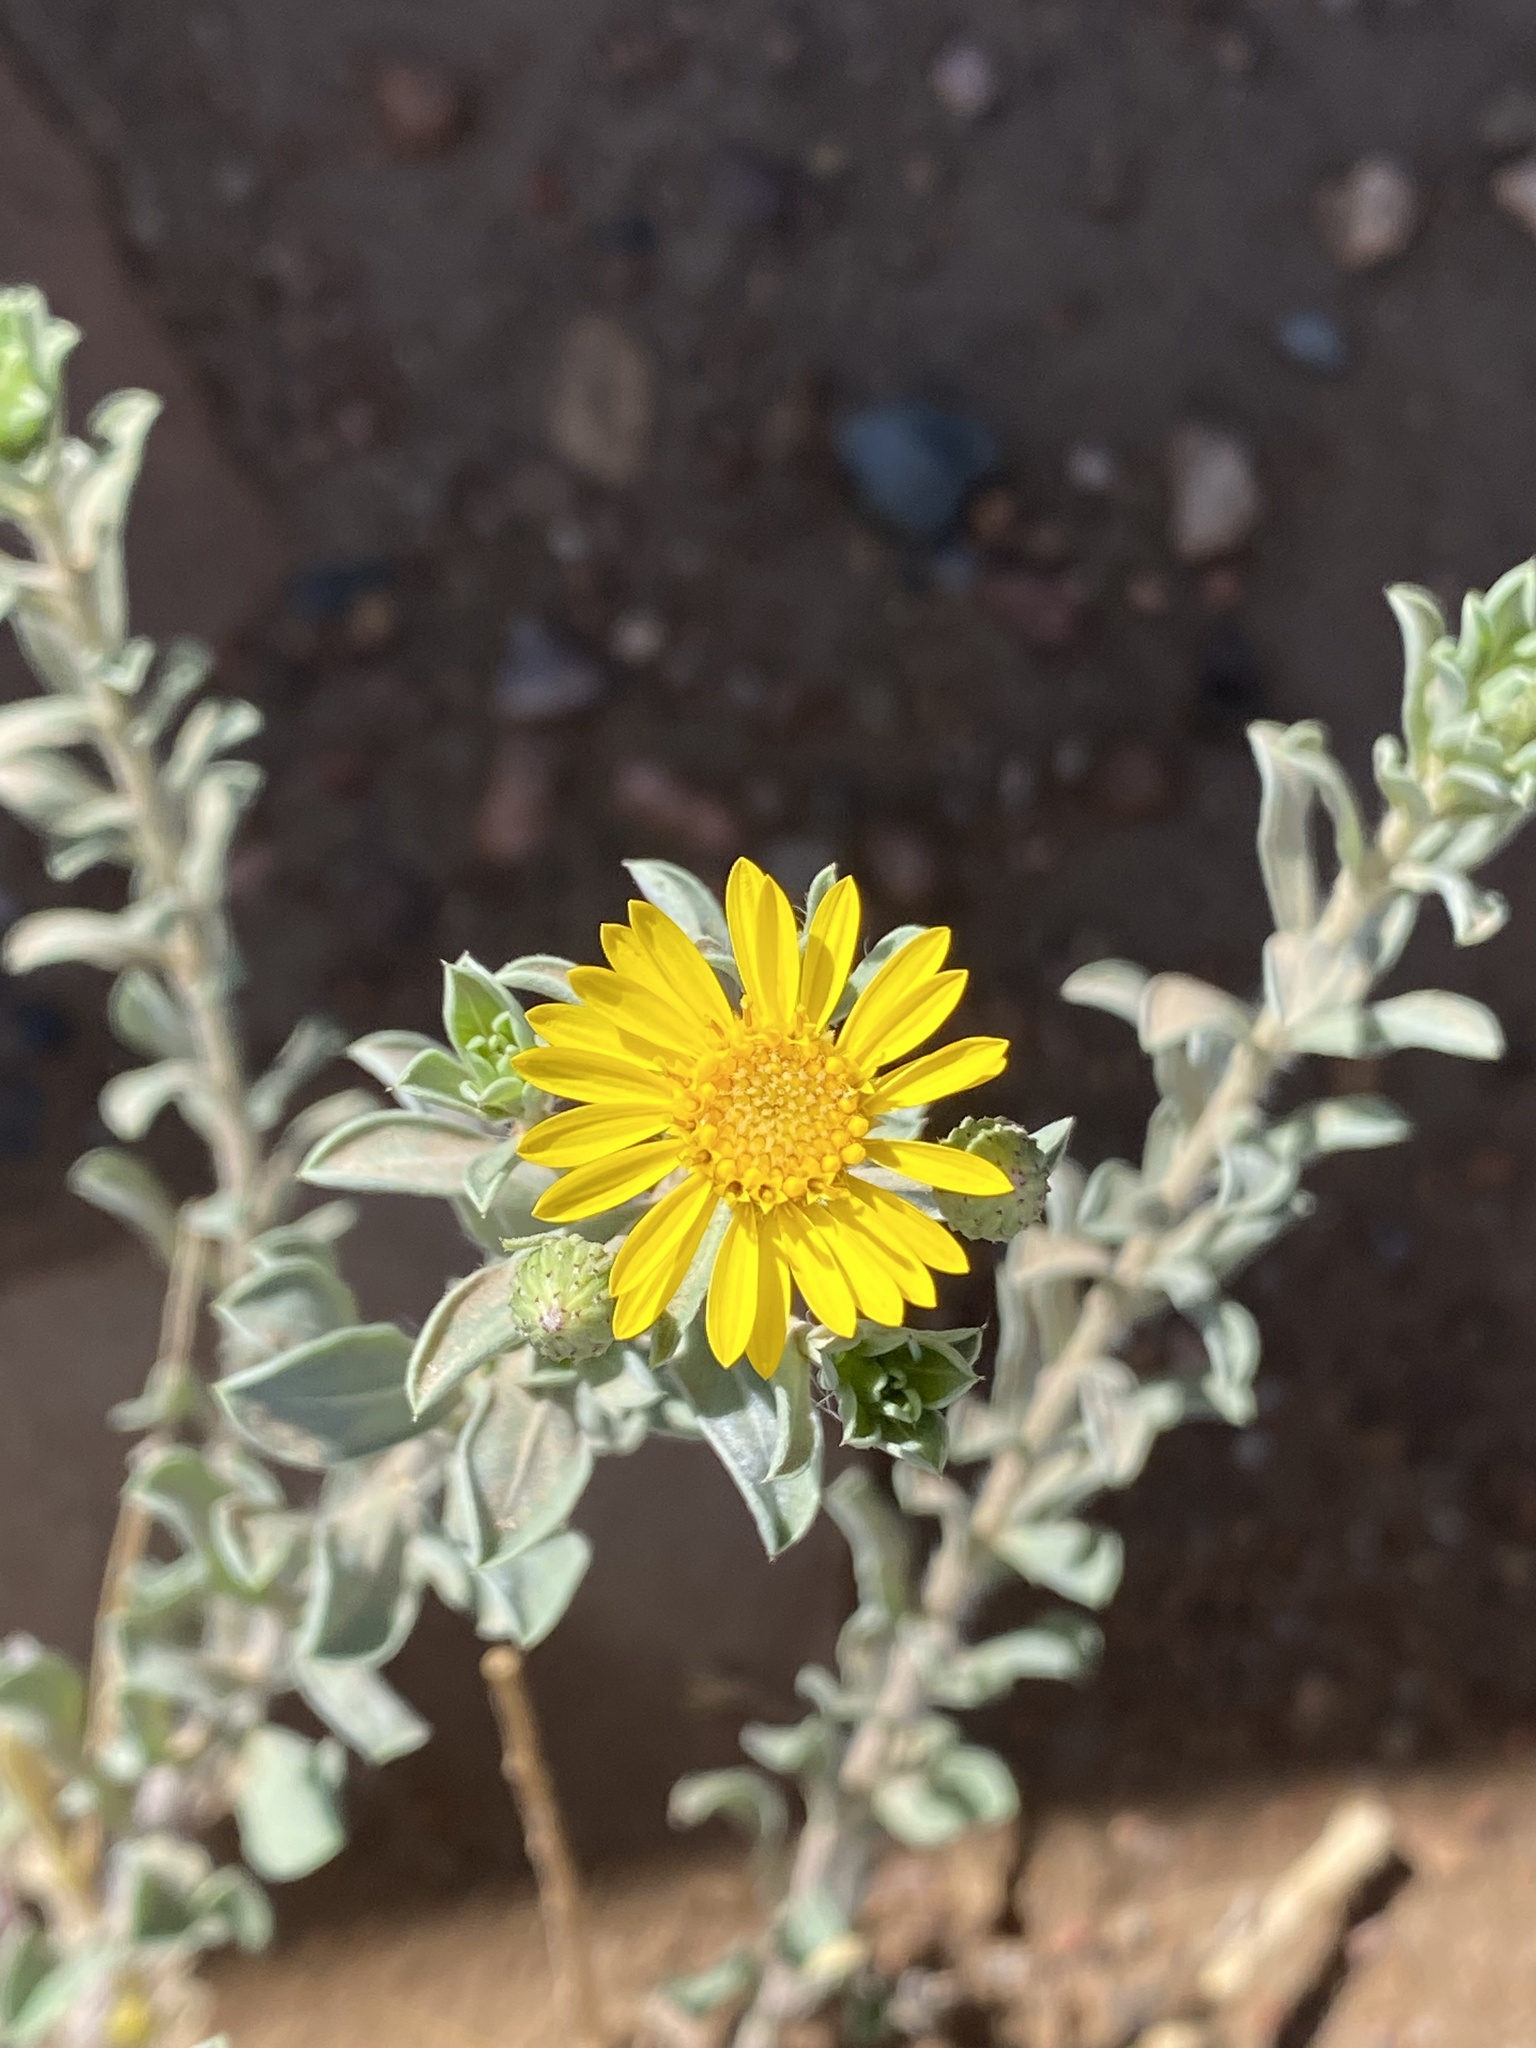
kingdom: Plantae
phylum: Tracheophyta
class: Magnoliopsida
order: Asterales
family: Asteraceae
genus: Heterotheca
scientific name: Heterotheca hirsutissima
